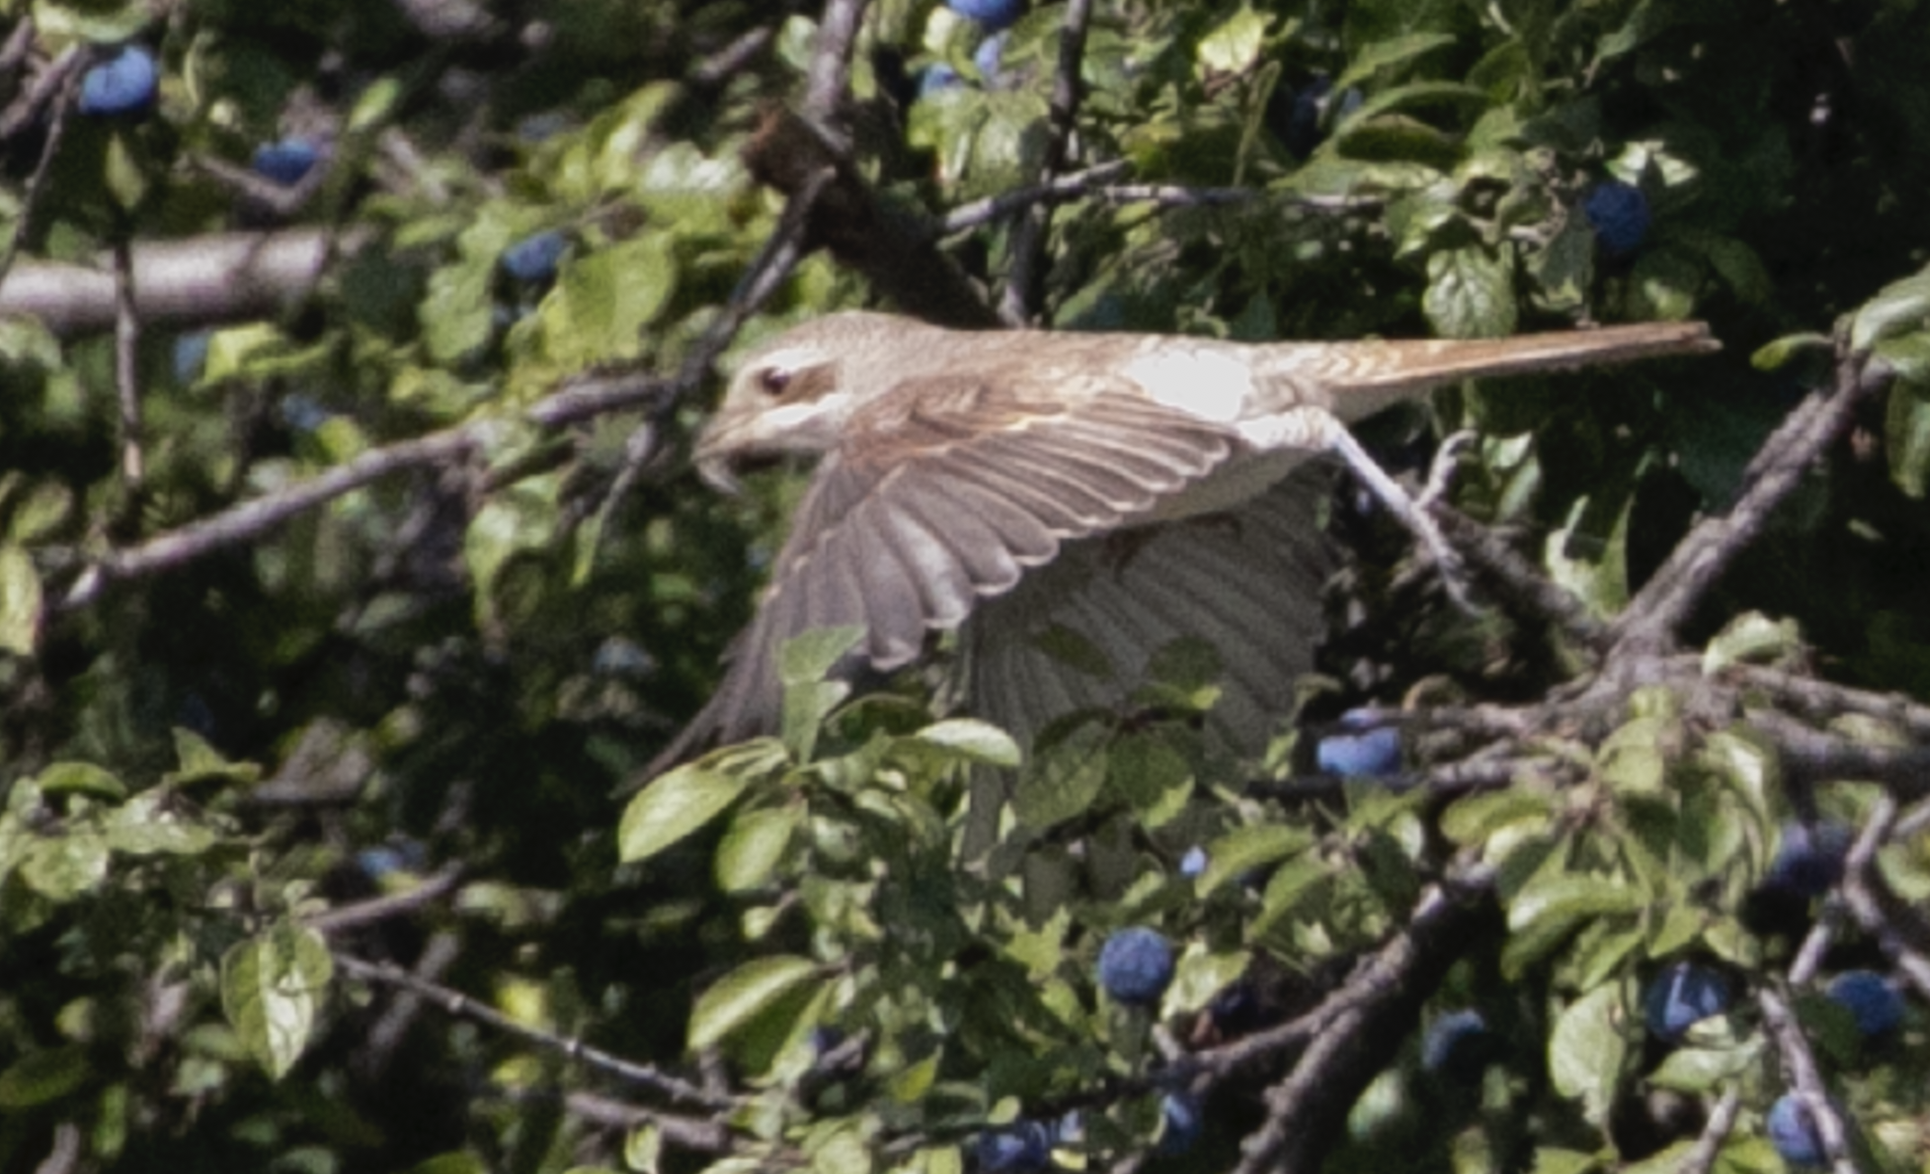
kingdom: Animalia
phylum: Chordata
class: Aves
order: Passeriformes
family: Laniidae
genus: Lanius
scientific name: Lanius collurio
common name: Red-backed shrike
